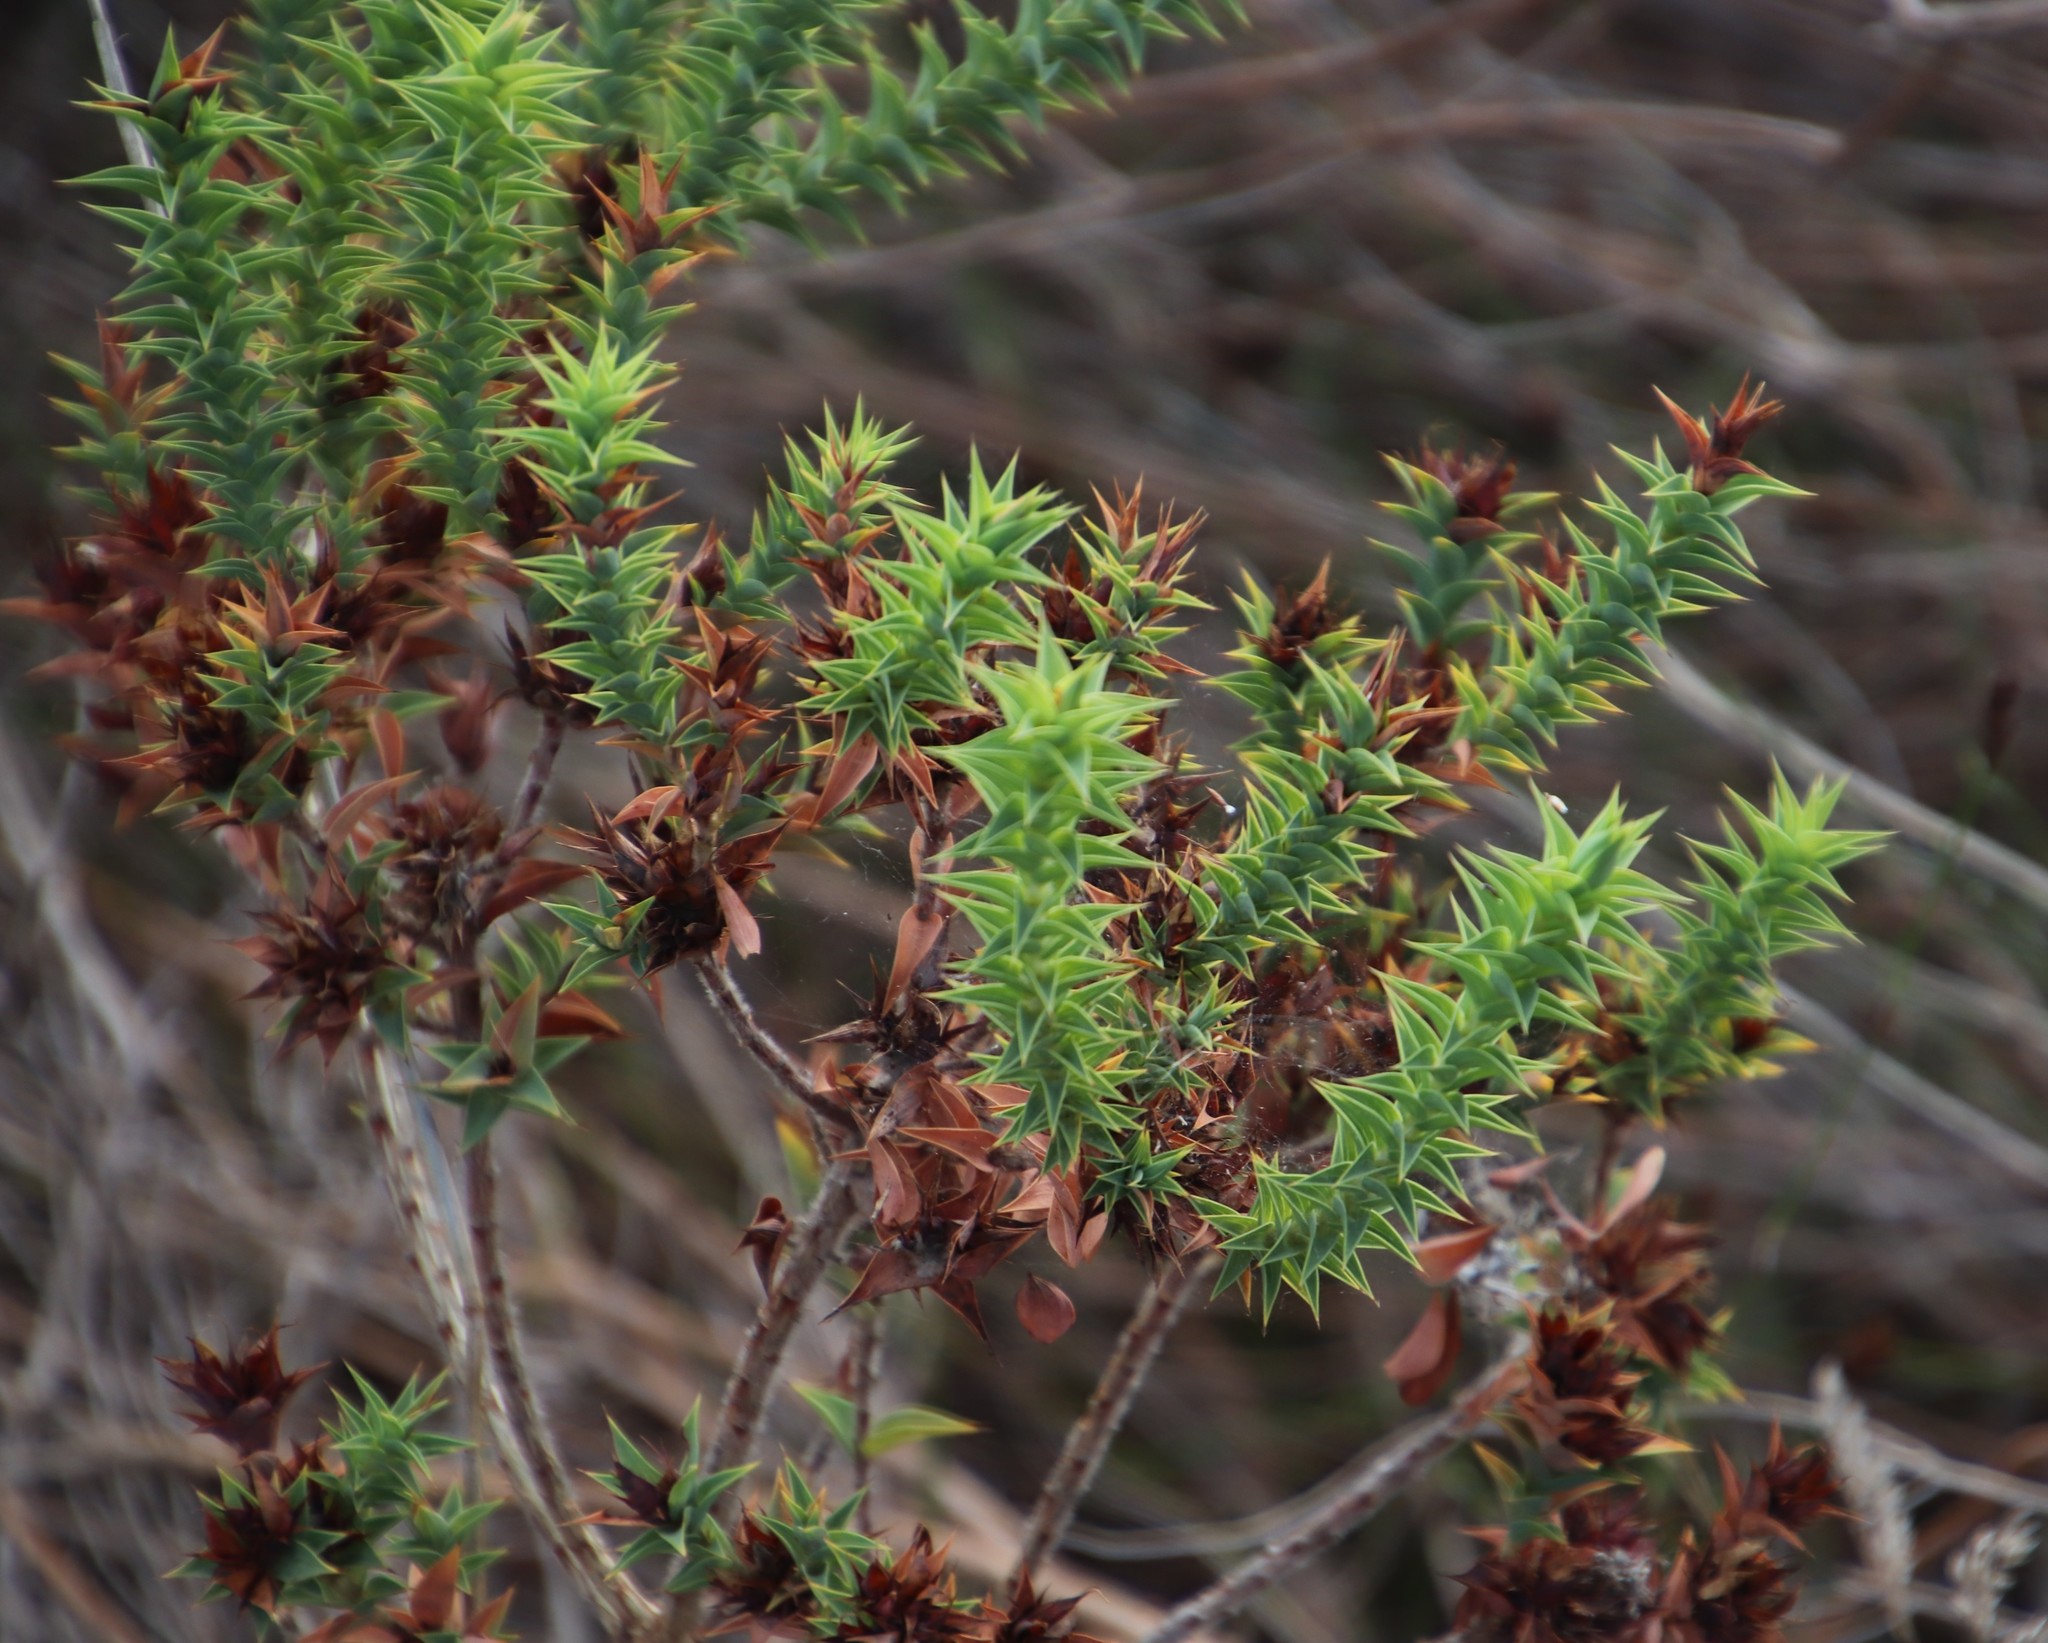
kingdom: Plantae
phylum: Tracheophyta
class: Magnoliopsida
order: Fabales
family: Fabaceae
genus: Aspalathus
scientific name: Aspalathus cordata
